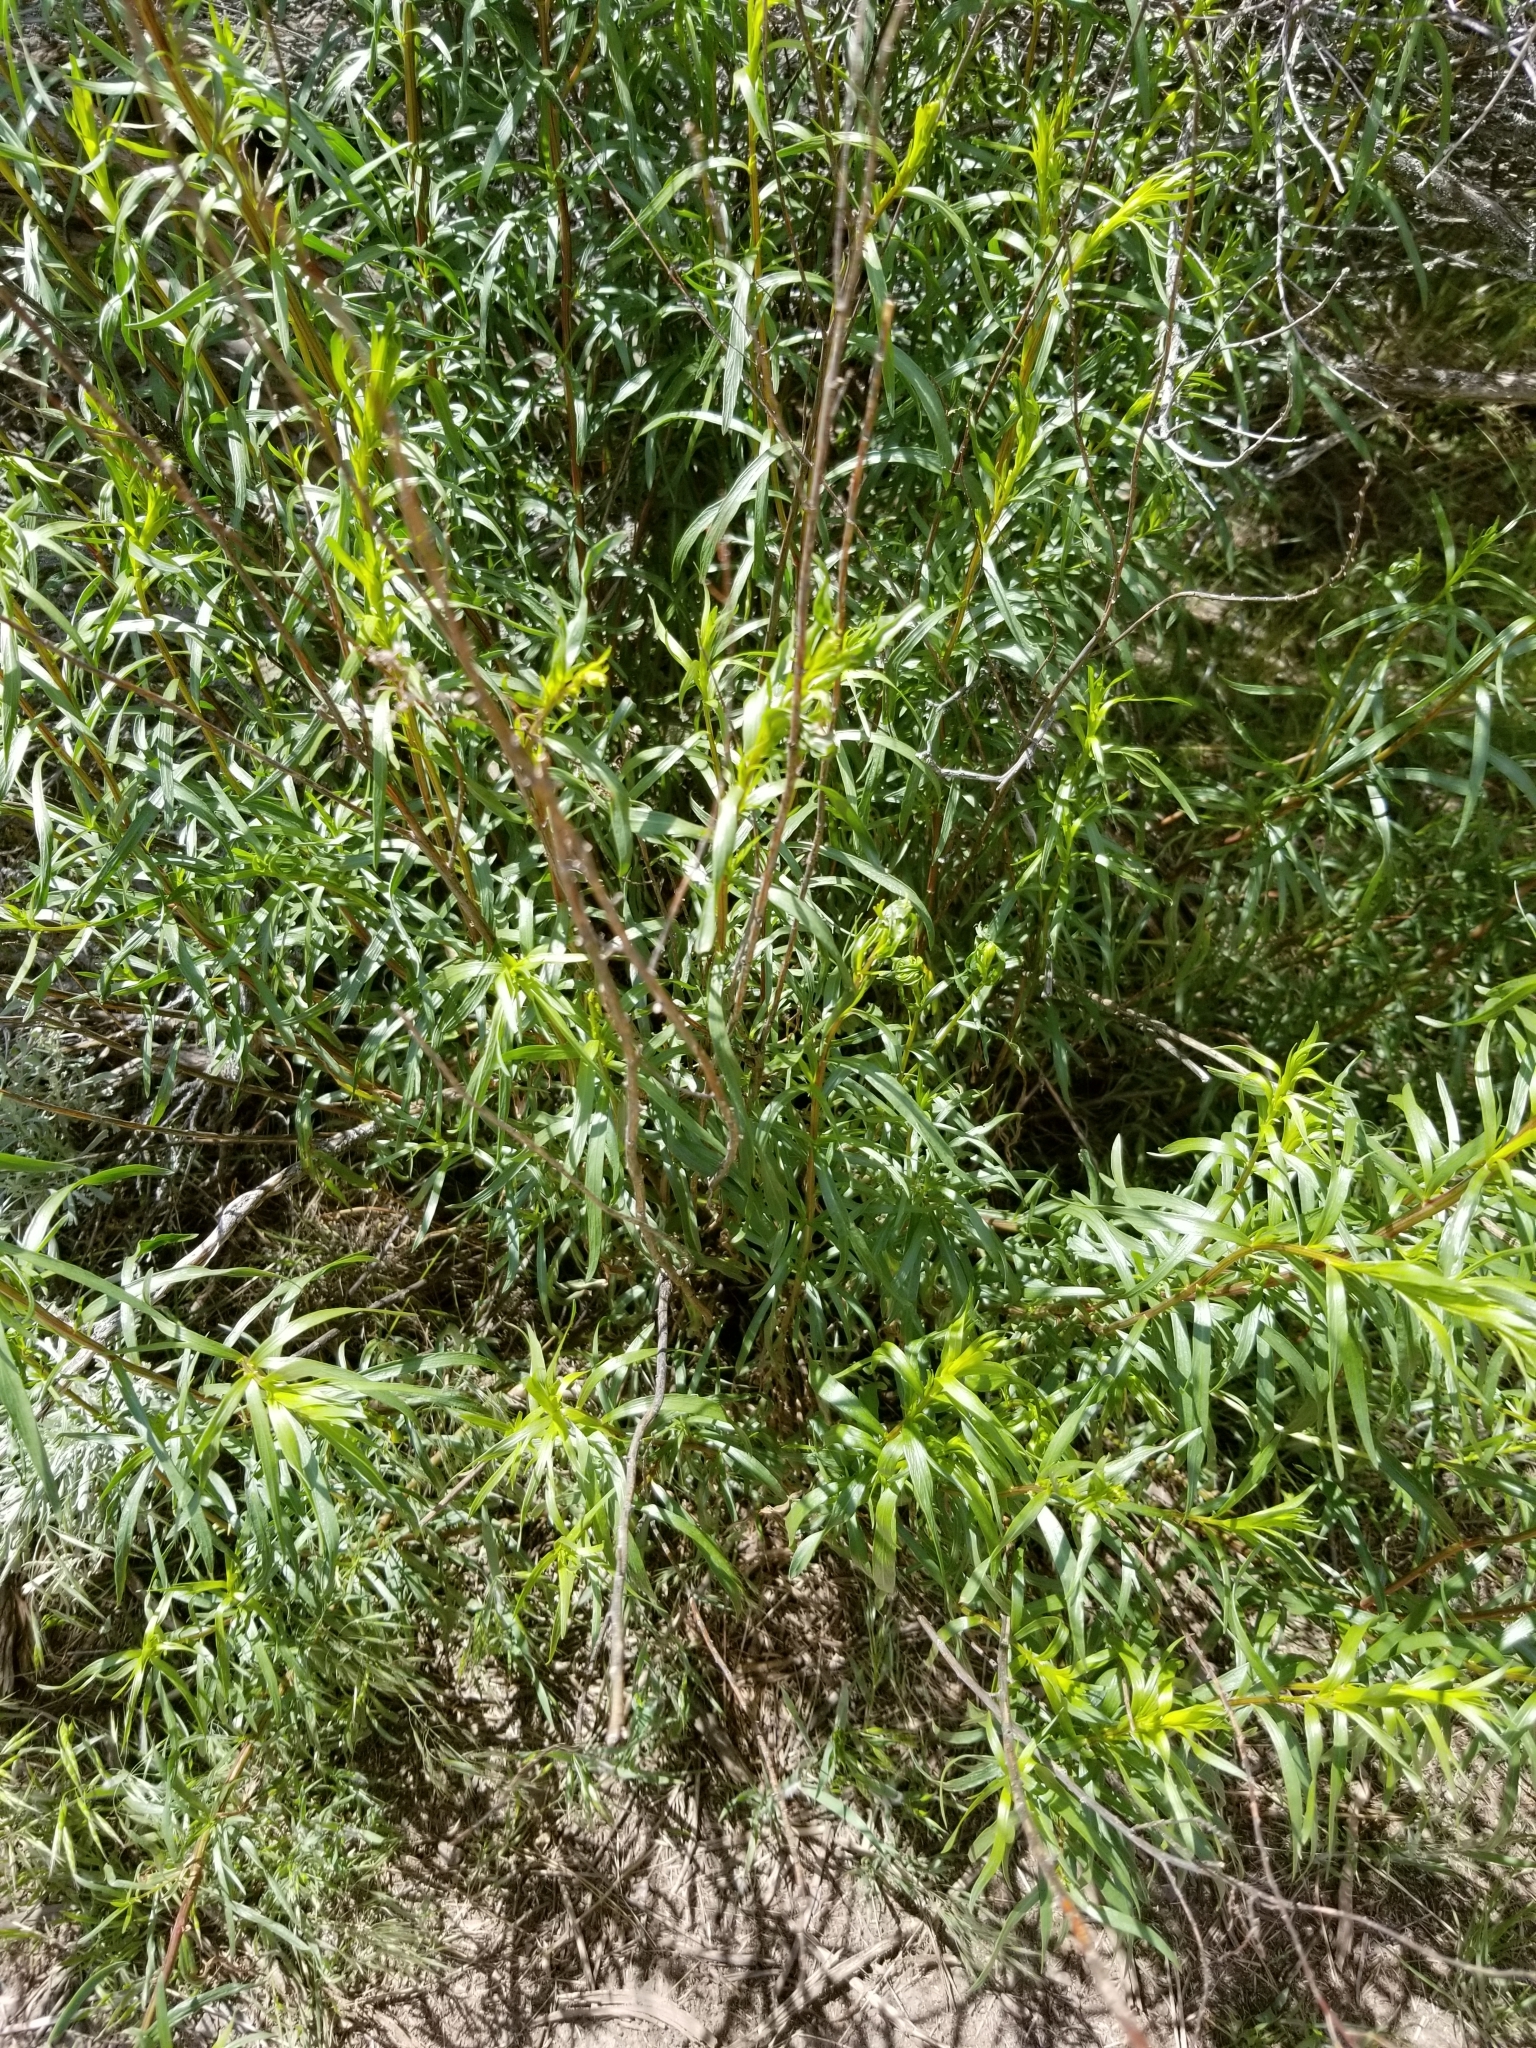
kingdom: Plantae
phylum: Tracheophyta
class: Magnoliopsida
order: Asterales
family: Asteraceae
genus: Artemisia
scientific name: Artemisia dracunculus
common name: Tarragon
